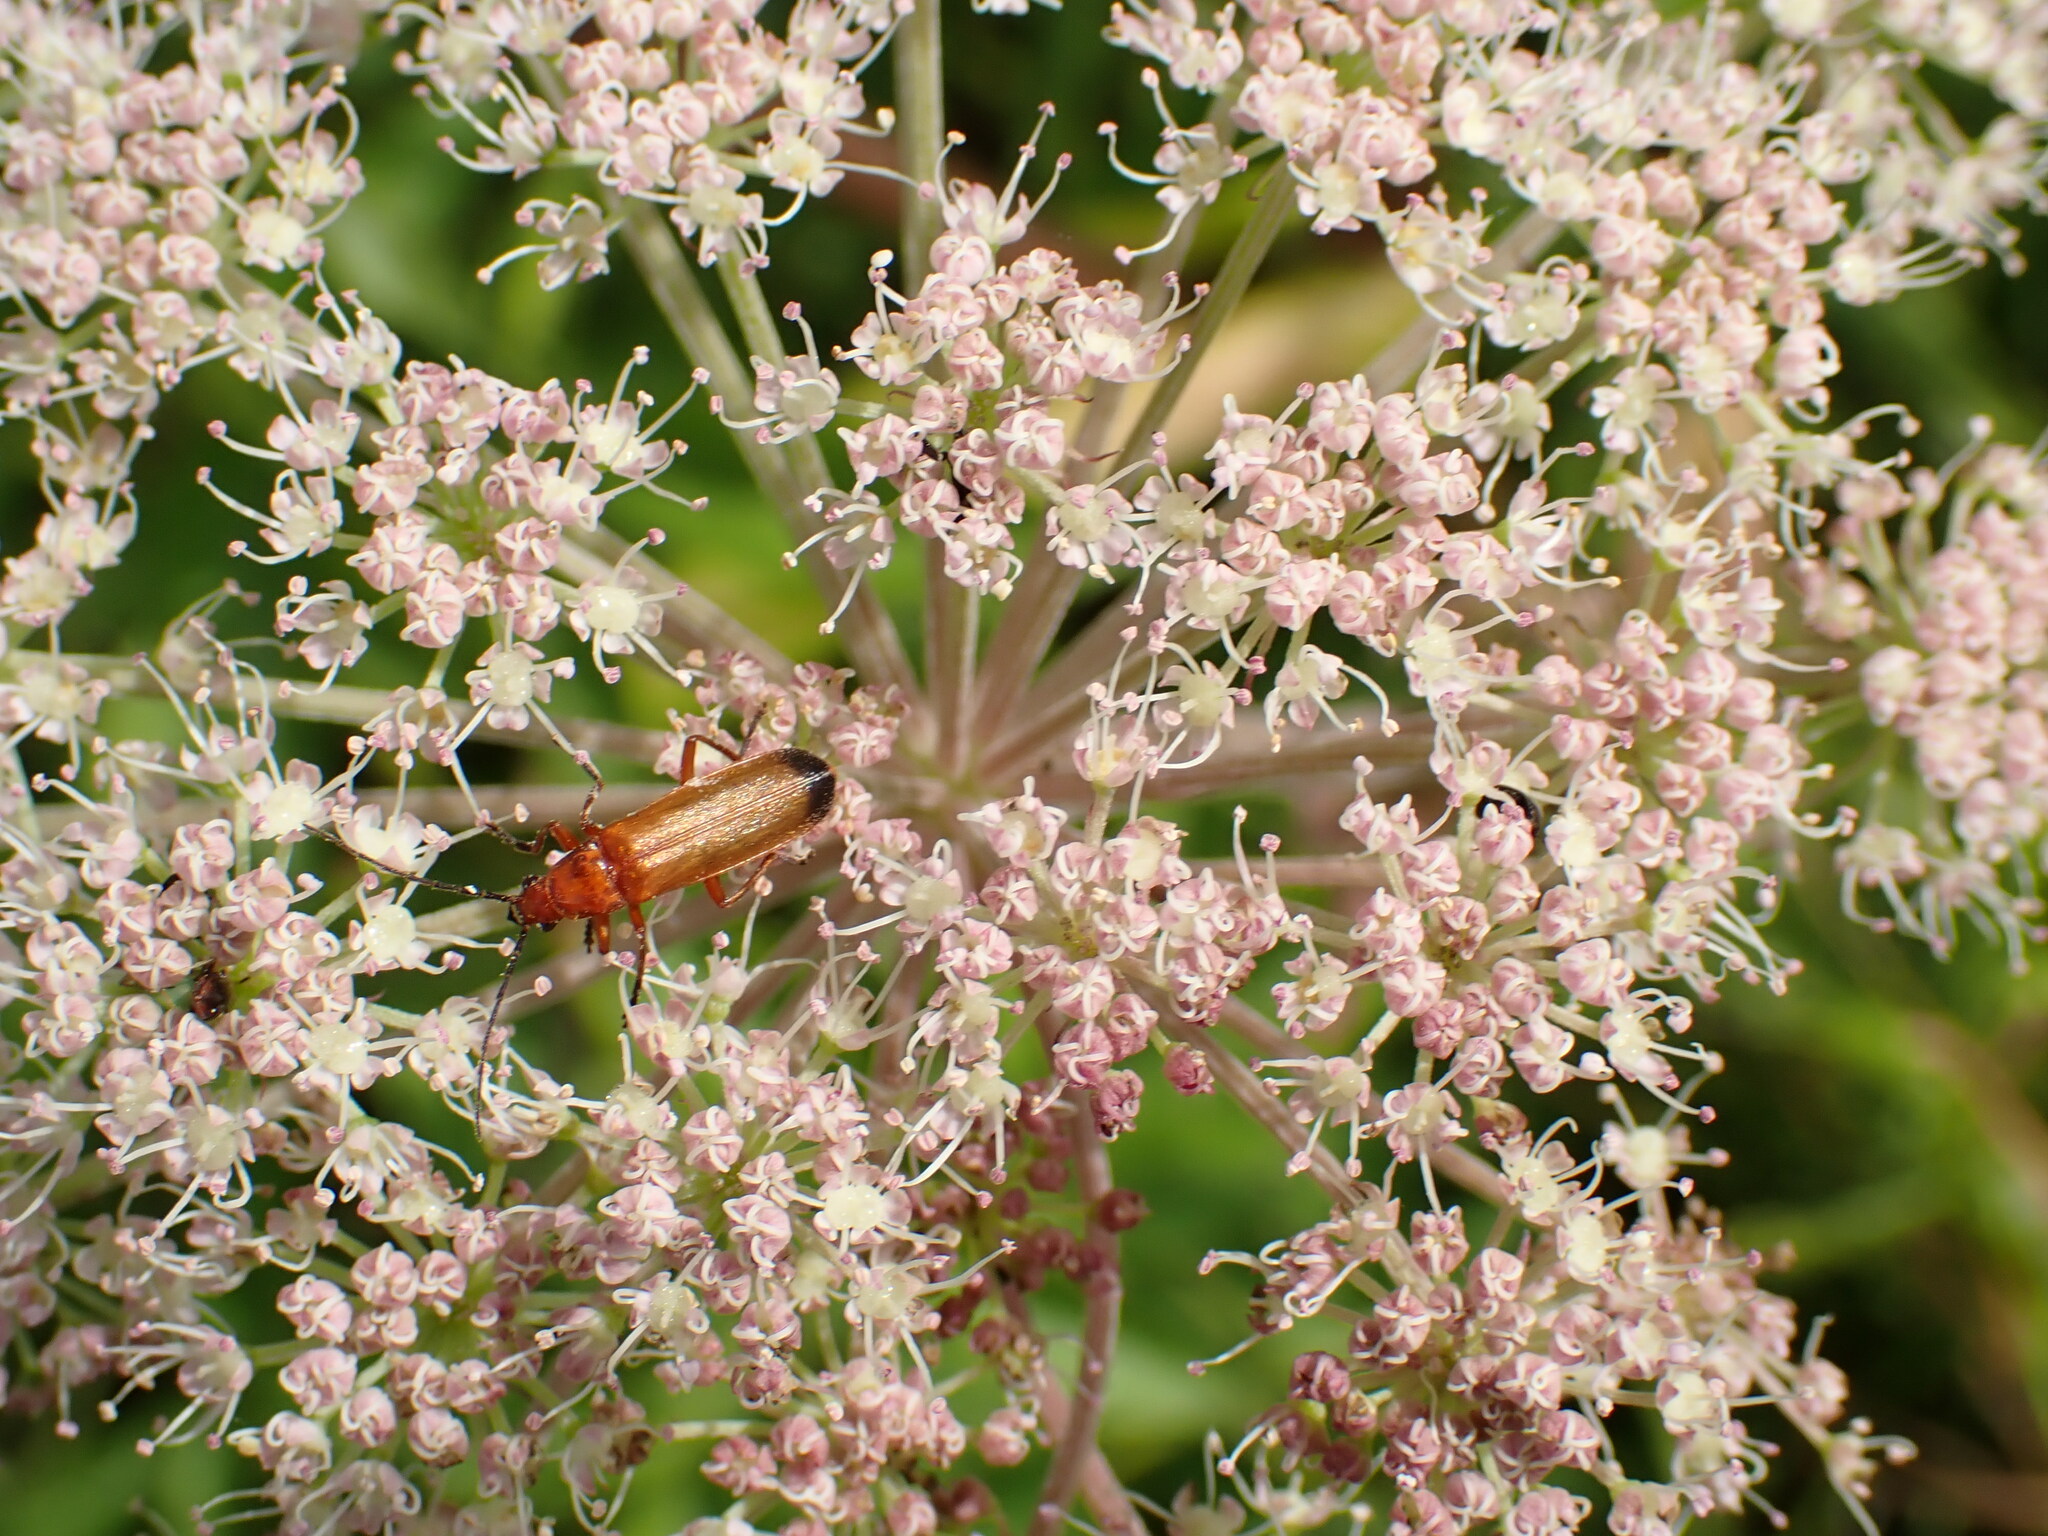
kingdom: Animalia
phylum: Arthropoda
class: Insecta
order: Coleoptera
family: Cantharidae
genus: Rhagonycha
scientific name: Rhagonycha fulva
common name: Common red soldier beetle
